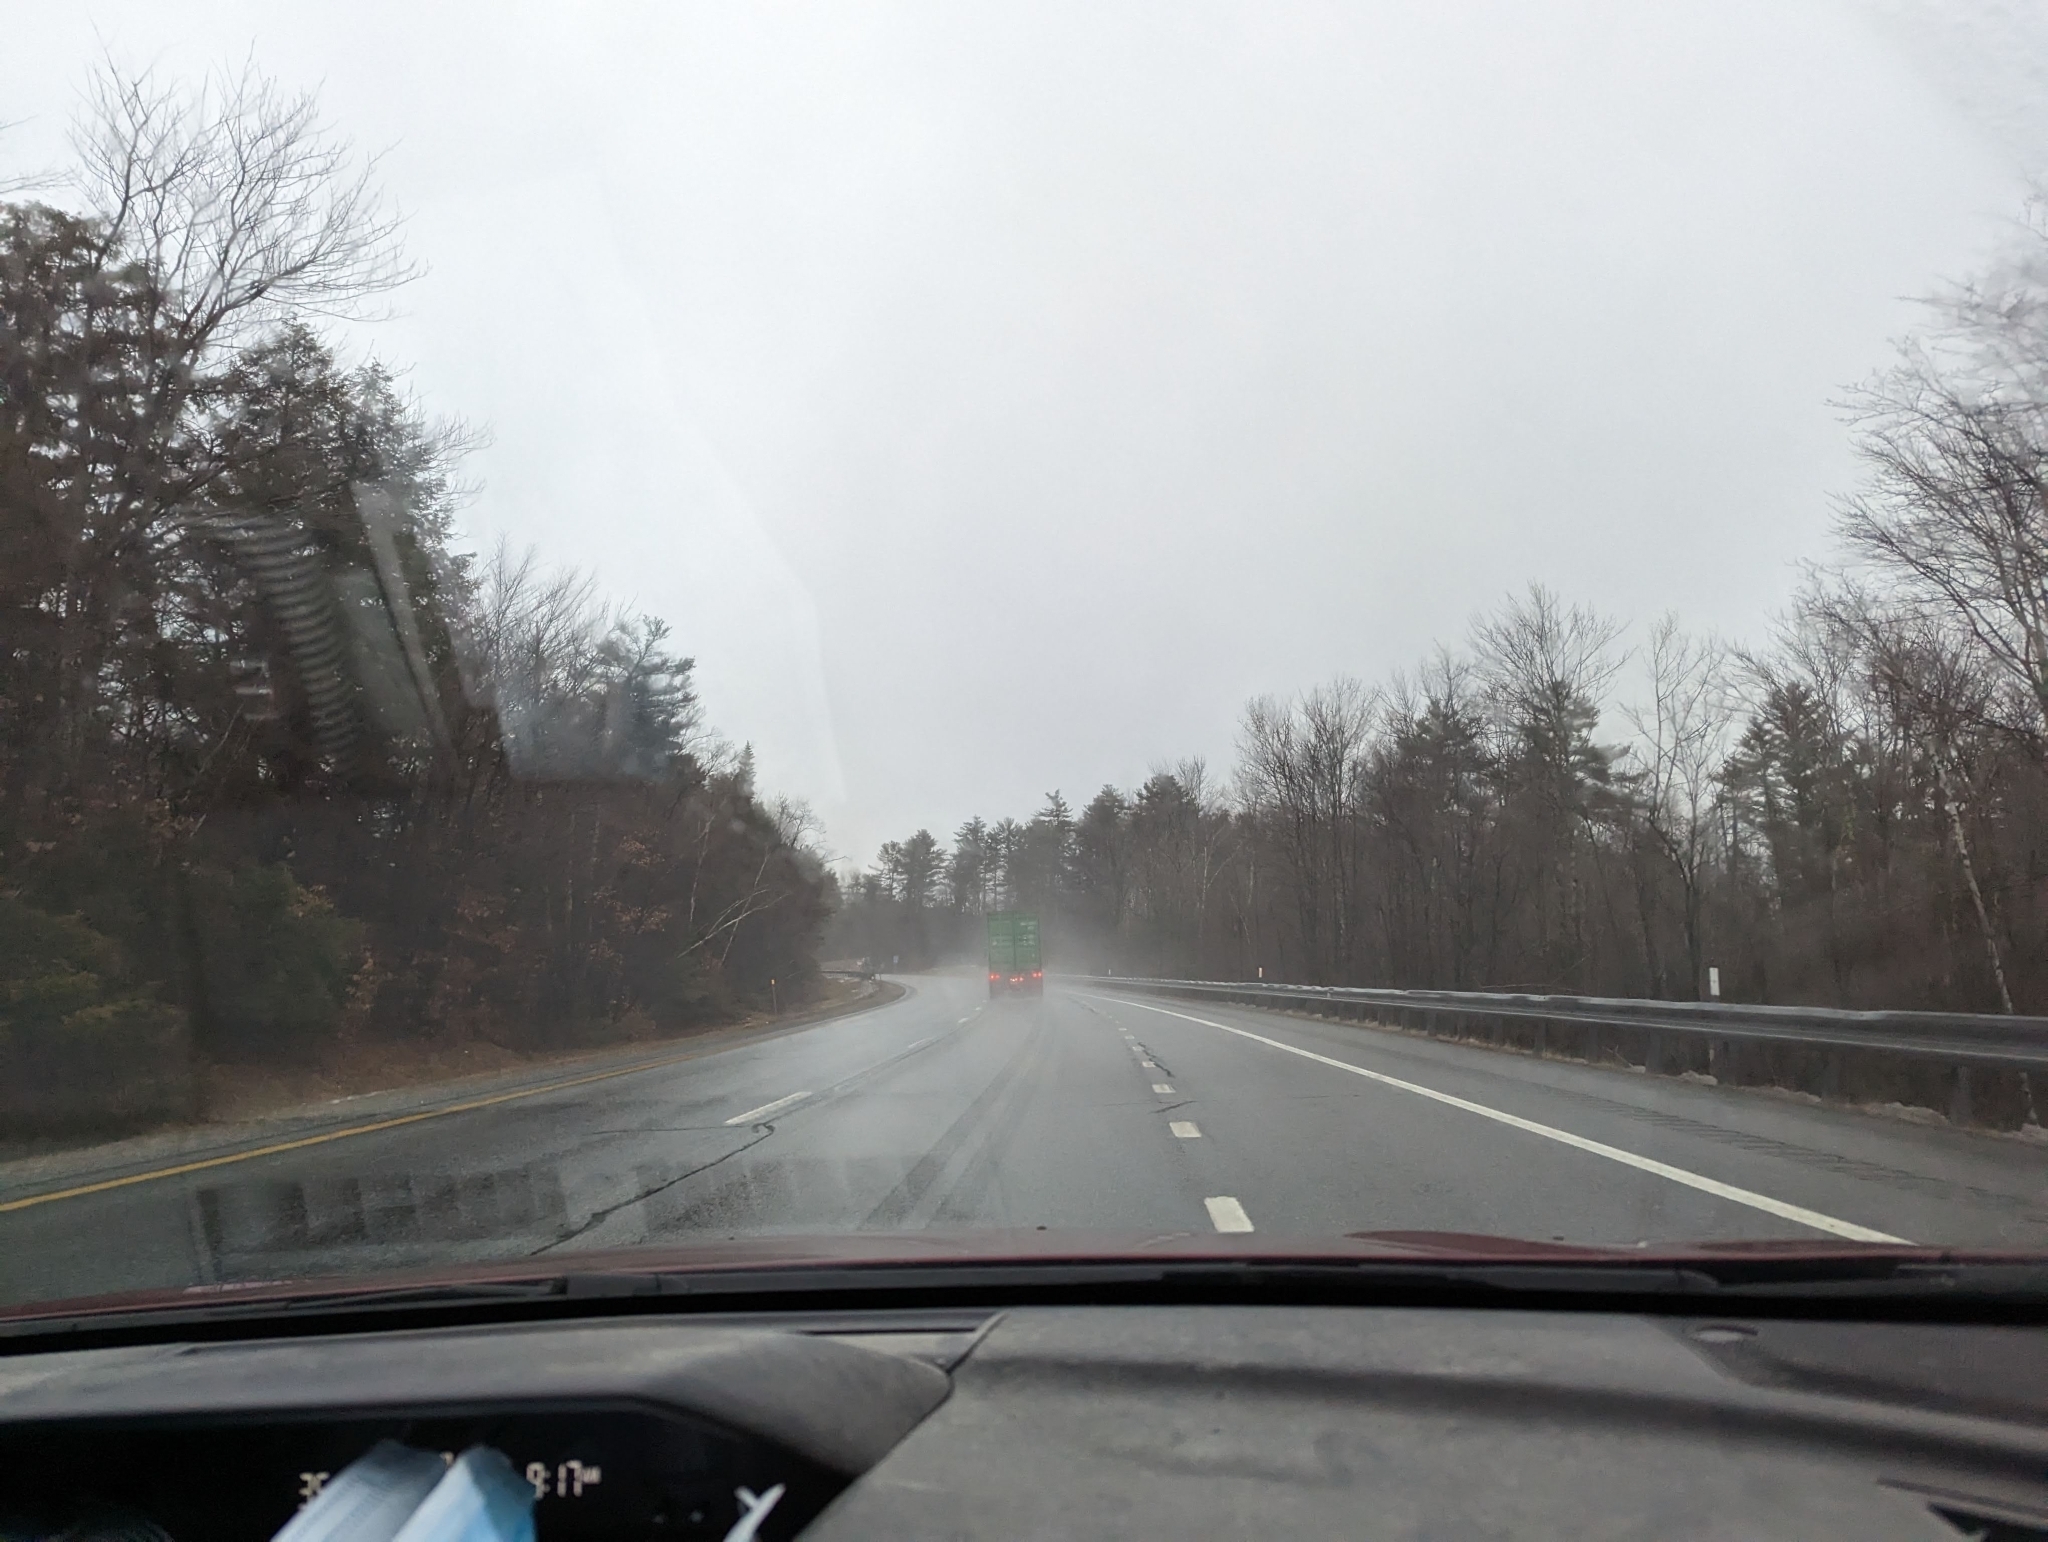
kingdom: Plantae
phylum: Tracheophyta
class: Pinopsida
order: Pinales
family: Pinaceae
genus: Pinus
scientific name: Pinus strobus
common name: Weymouth pine
